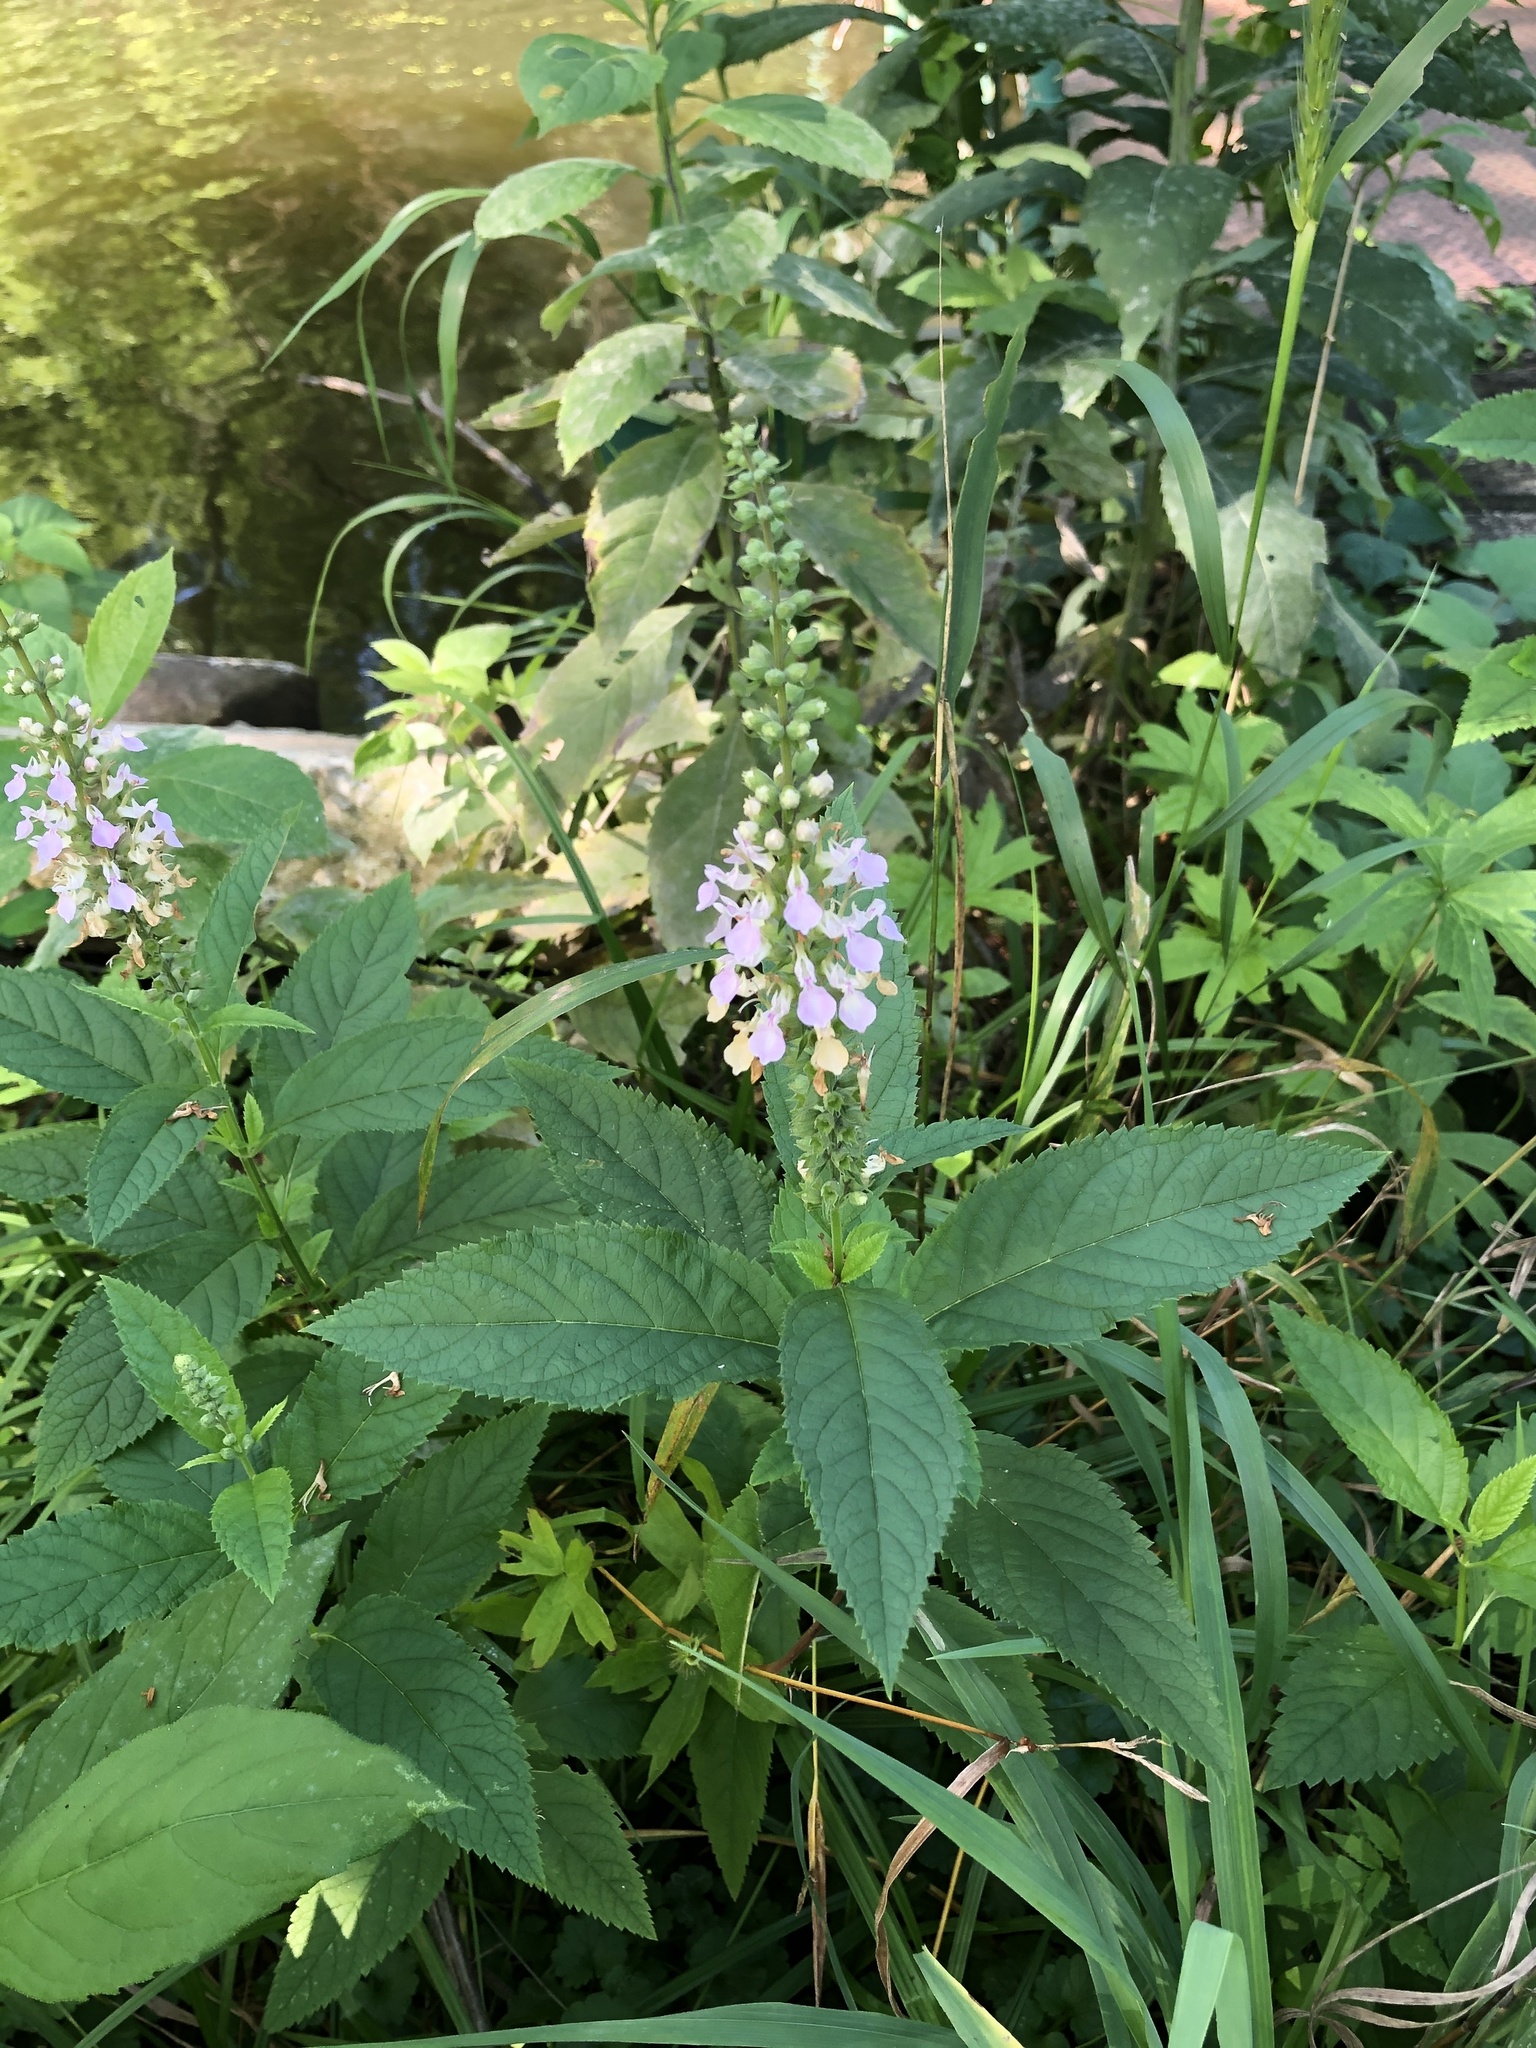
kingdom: Plantae
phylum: Tracheophyta
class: Magnoliopsida
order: Lamiales
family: Lamiaceae
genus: Teucrium
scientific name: Teucrium canadense
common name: American germander
